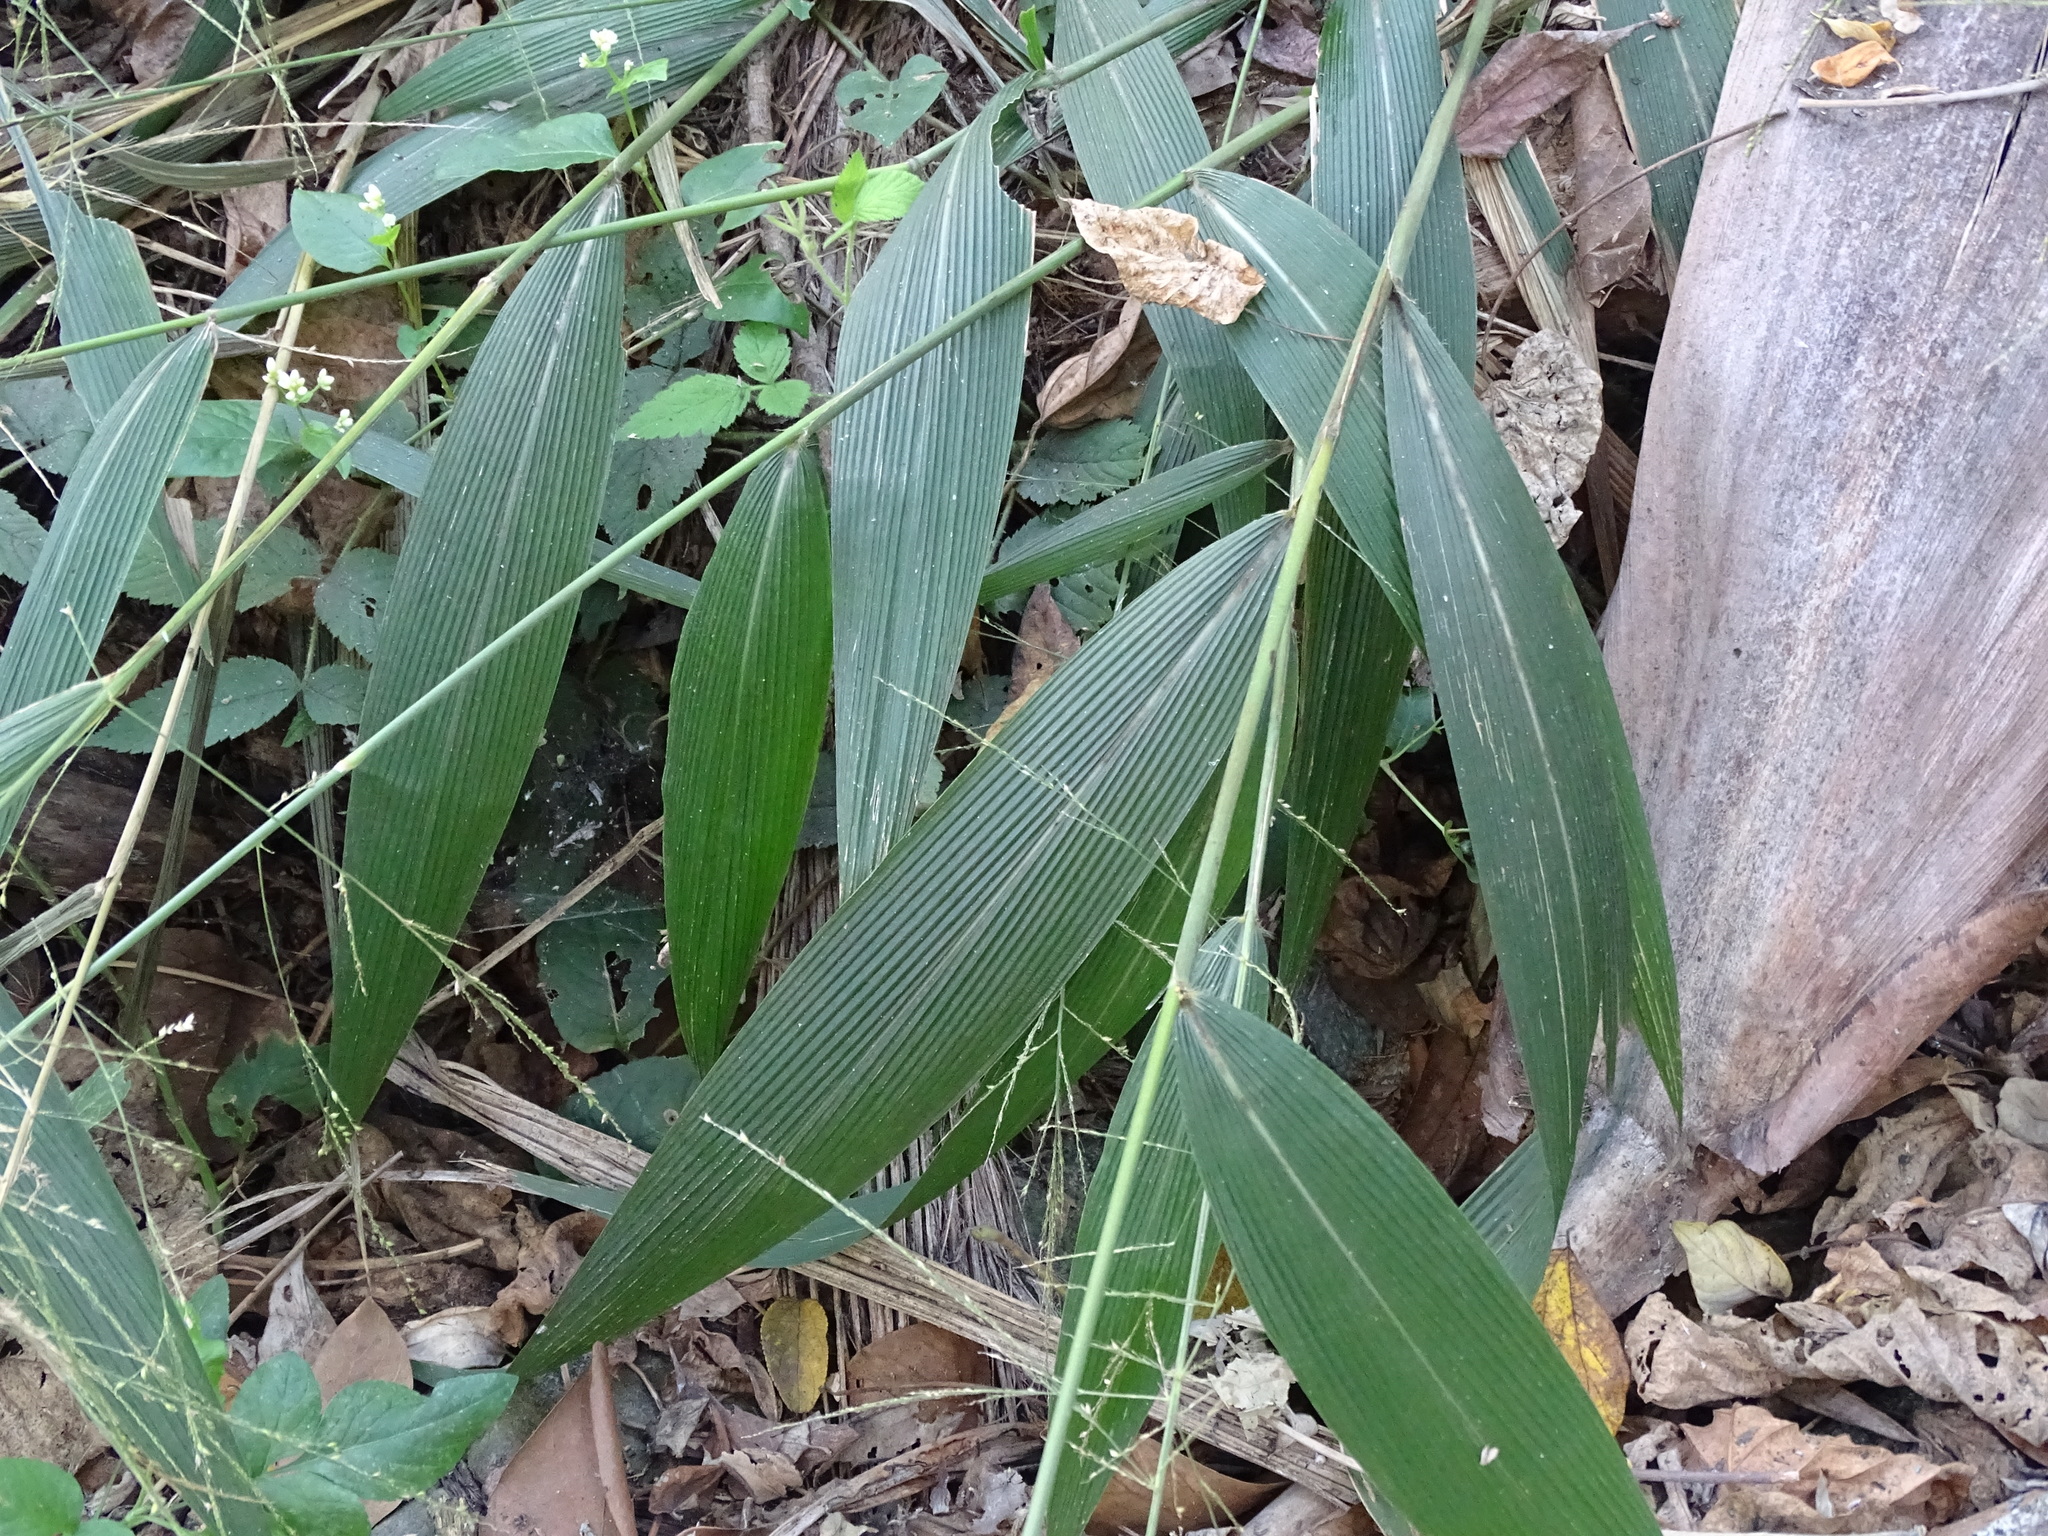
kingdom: Plantae
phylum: Tracheophyta
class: Liliopsida
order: Poales
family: Poaceae
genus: Setaria
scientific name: Setaria palmifolia
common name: Broadleaved bristlegrass
